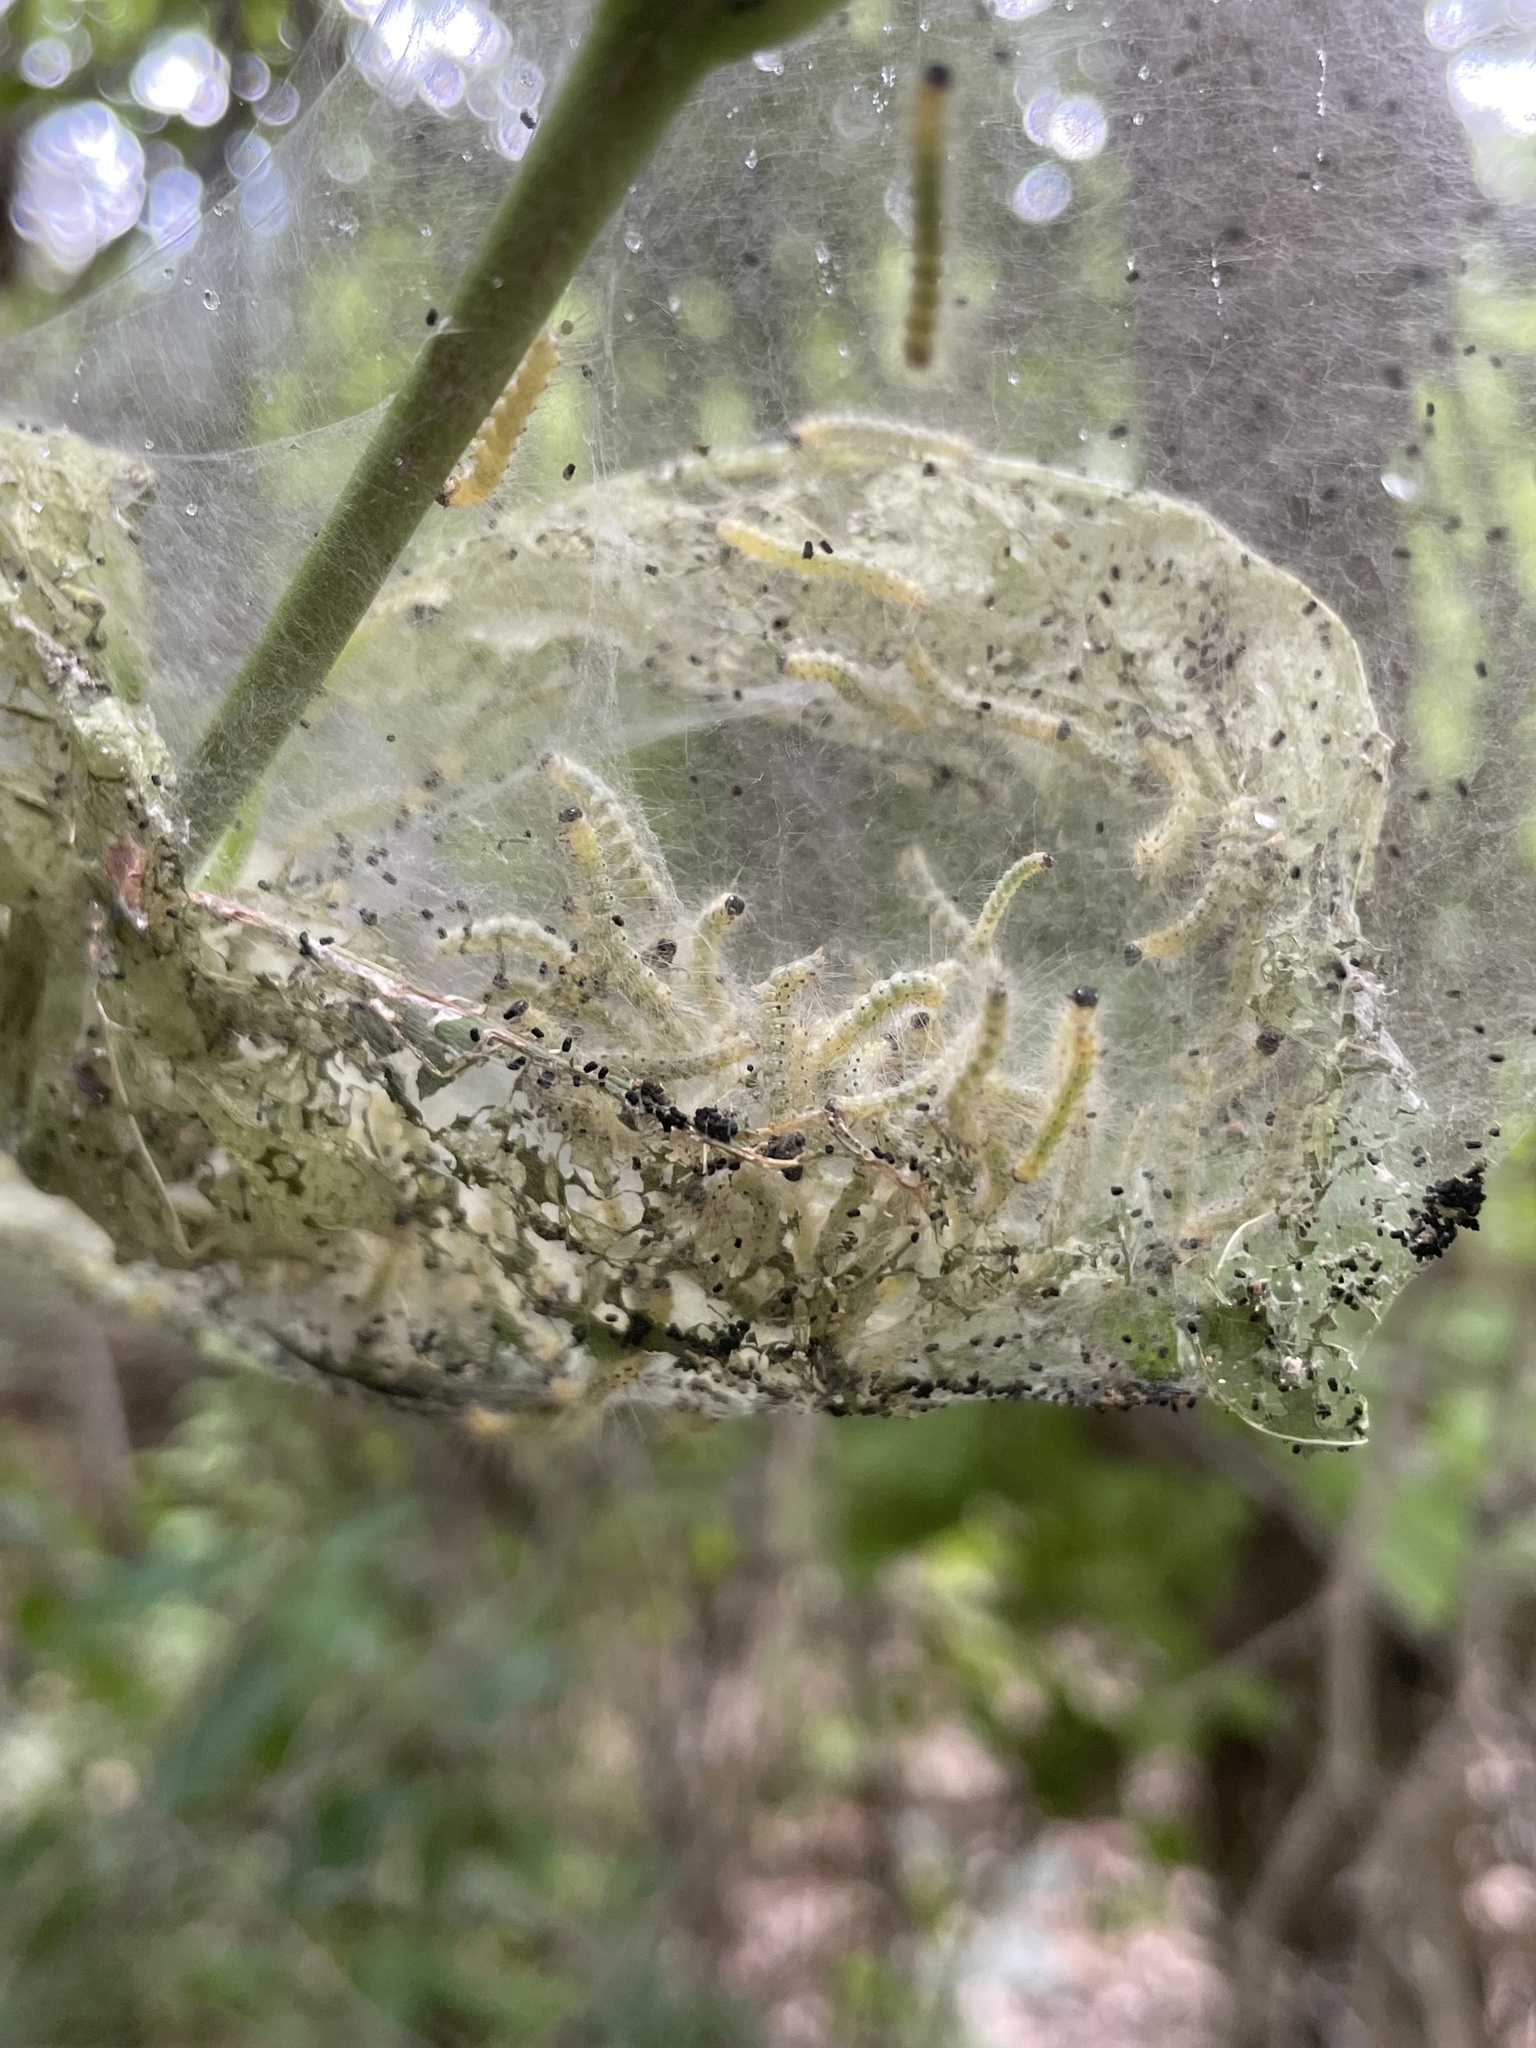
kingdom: Animalia
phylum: Arthropoda
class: Insecta
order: Lepidoptera
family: Erebidae
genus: Hyphantria
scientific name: Hyphantria cunea
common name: American white moth
